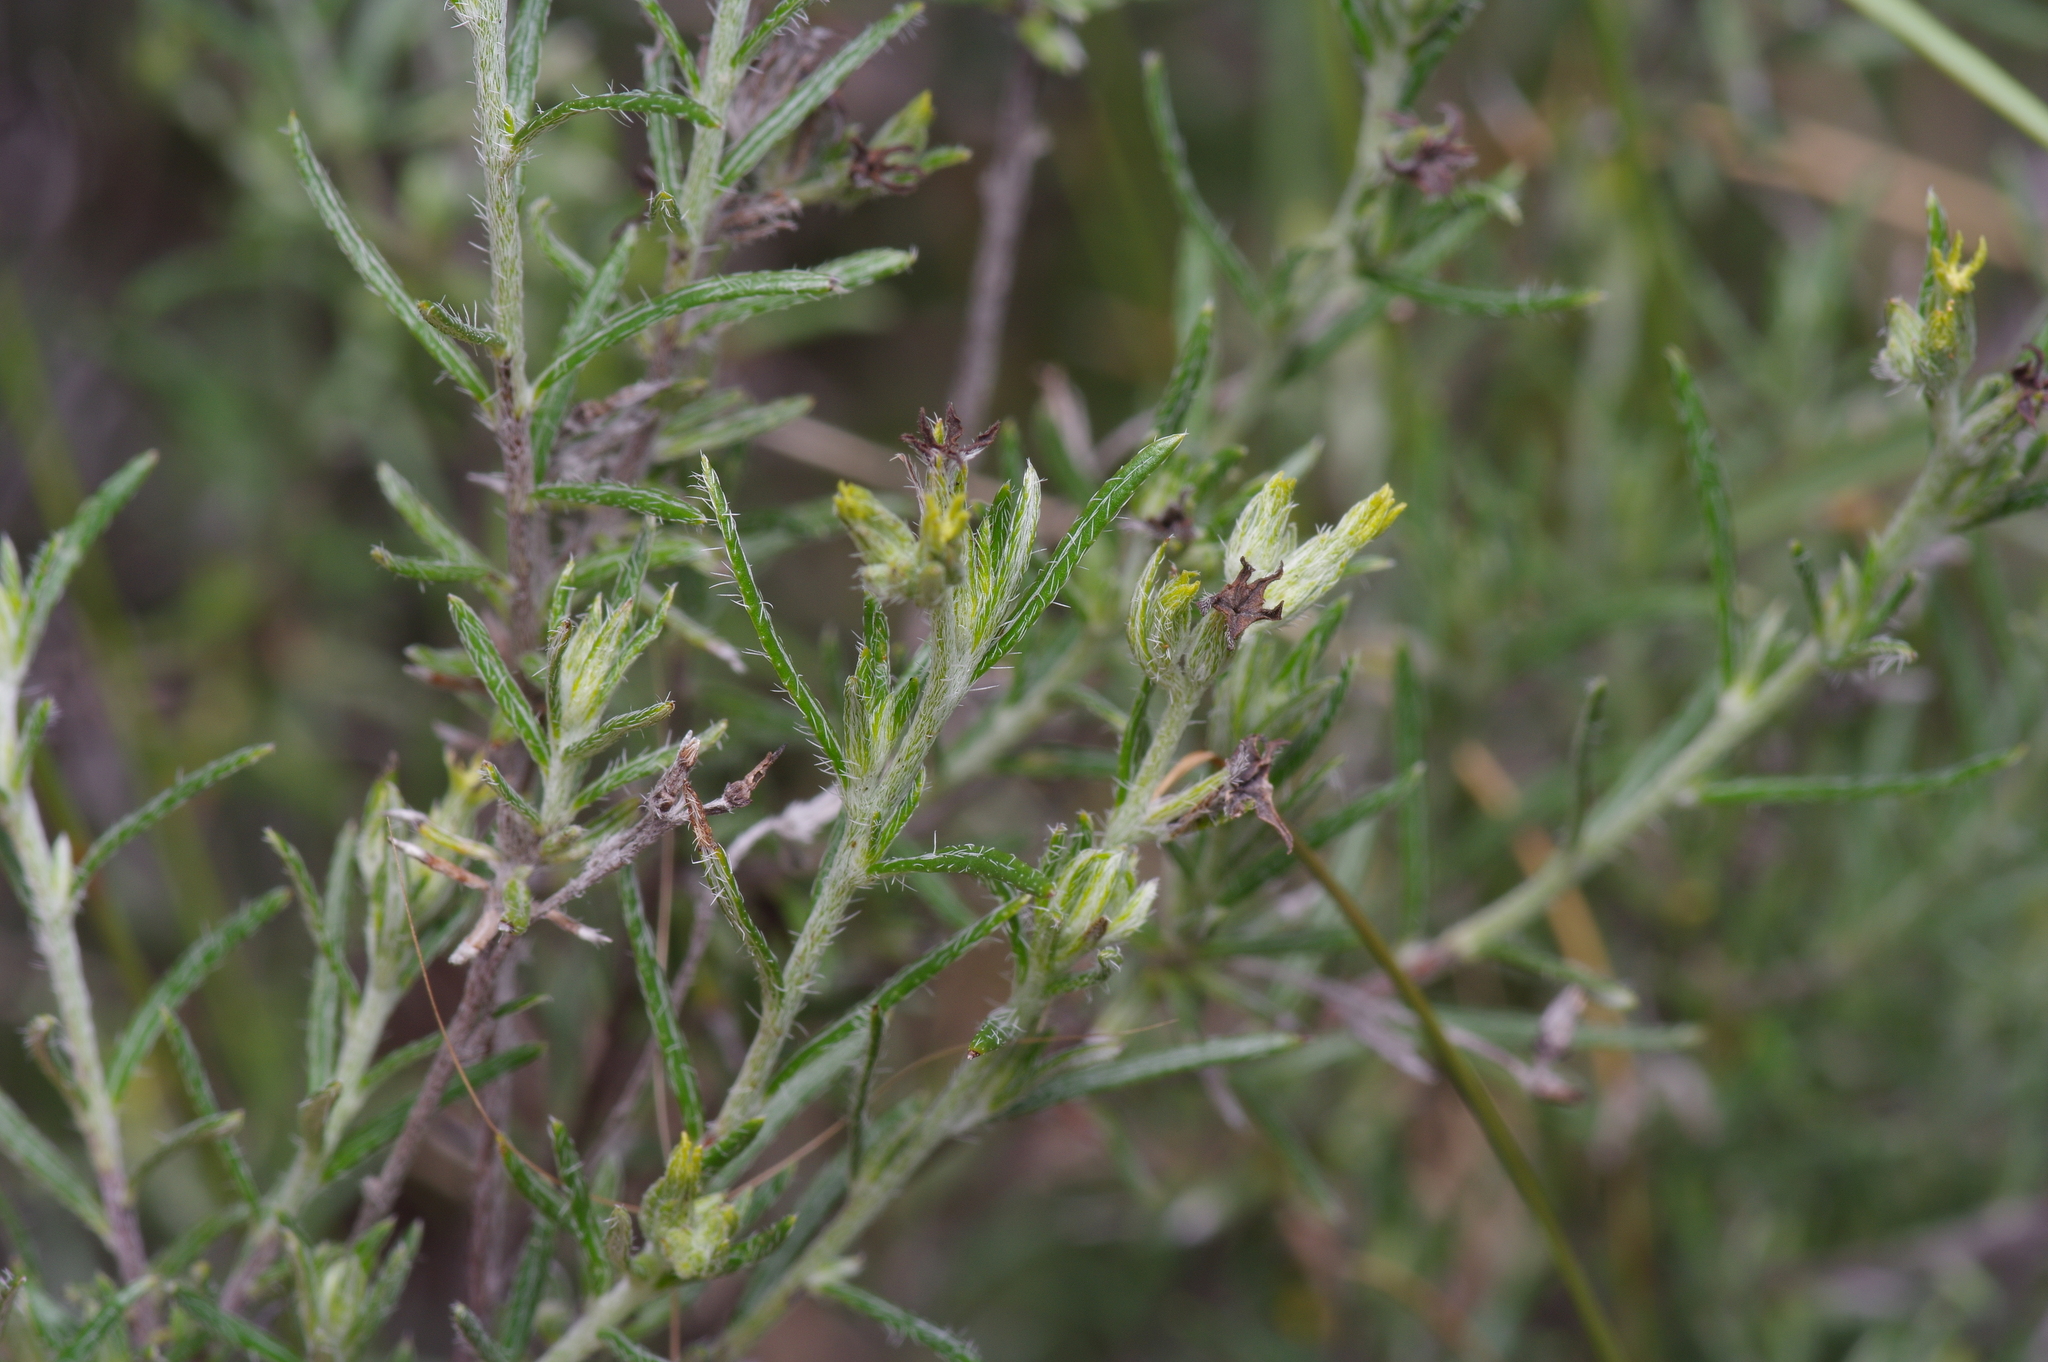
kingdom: Plantae
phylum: Tracheophyta
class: Magnoliopsida
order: Boraginales
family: Heliotropiaceae
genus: Euploca
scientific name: Euploca torreyi
